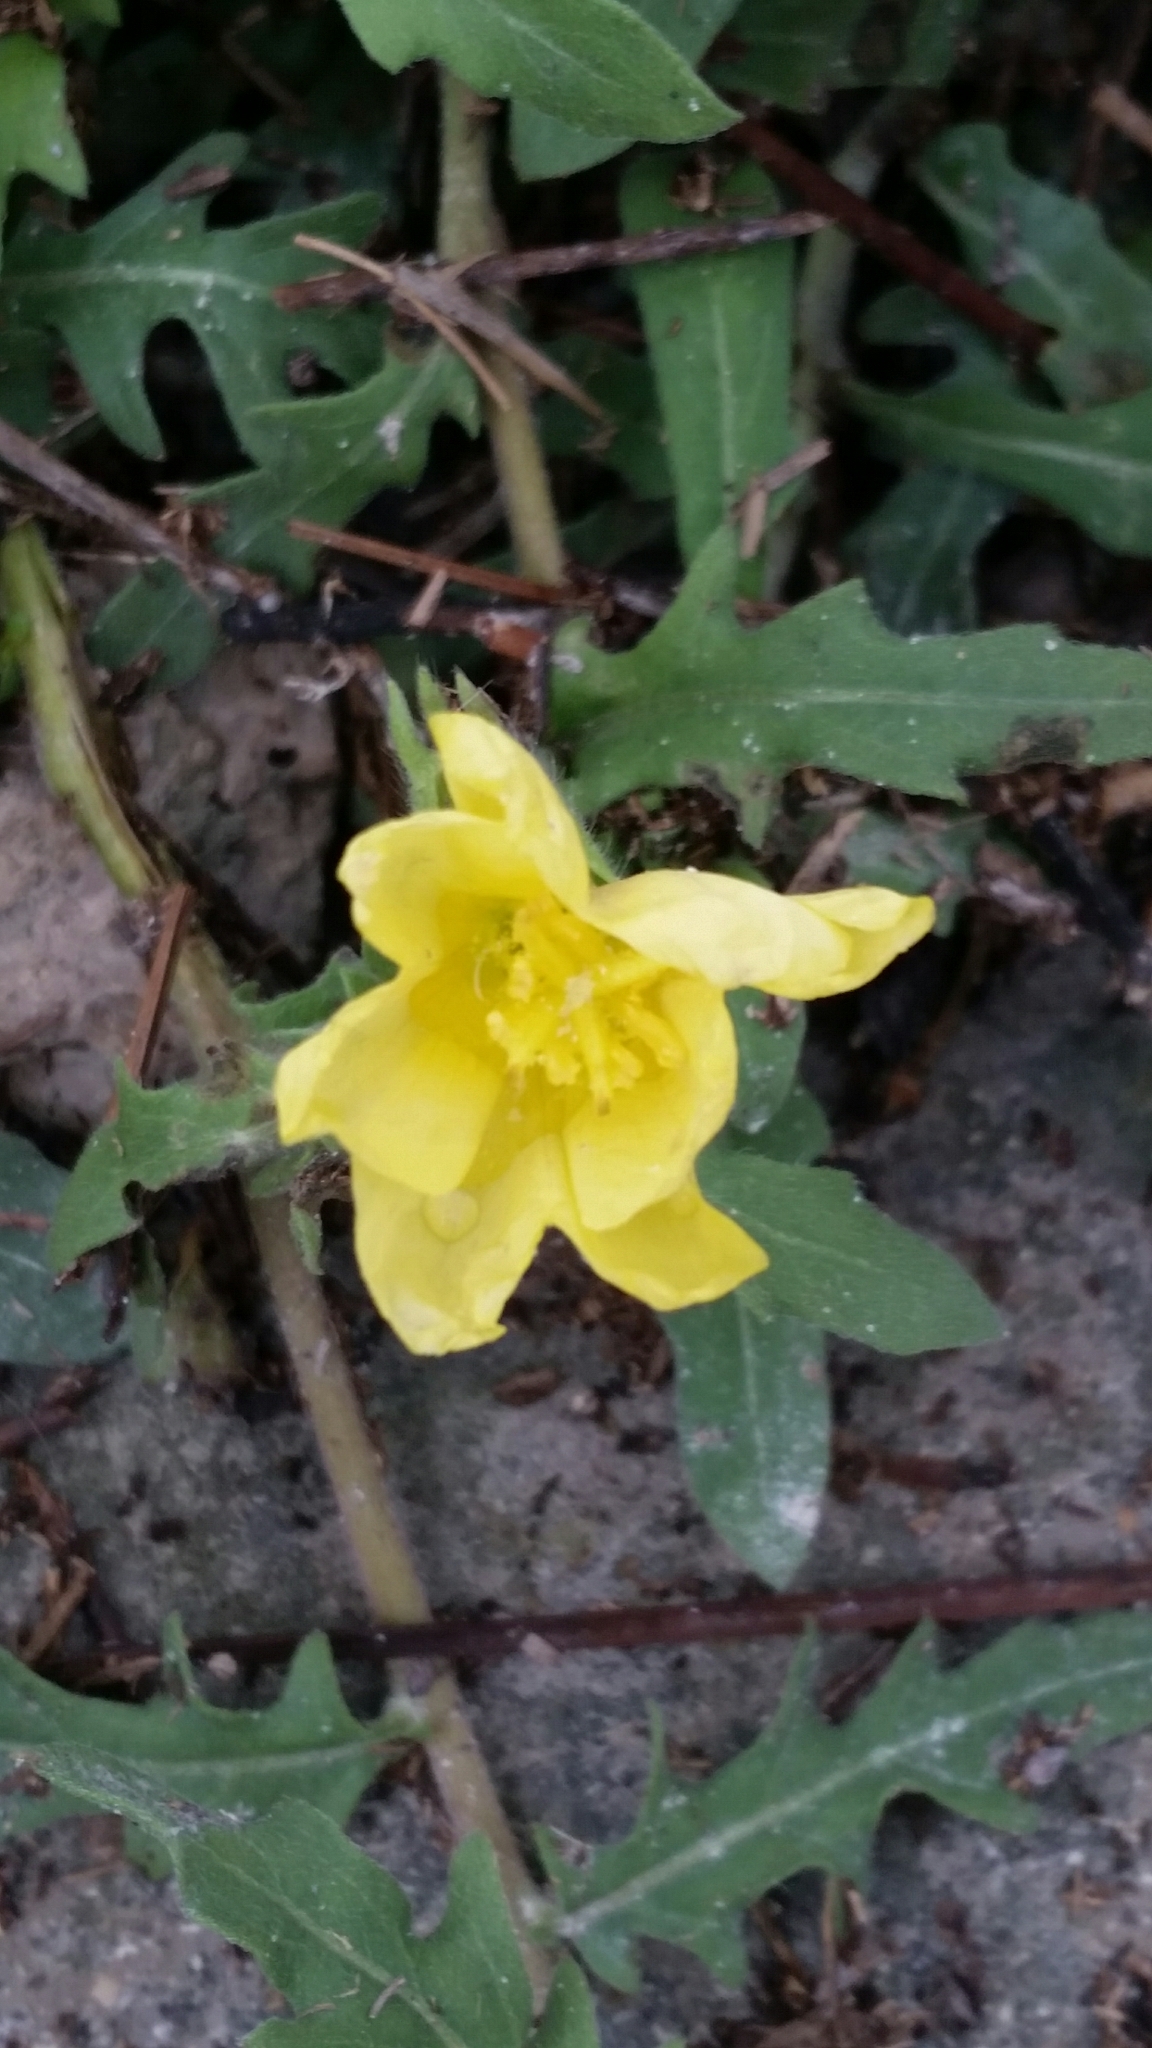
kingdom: Plantae
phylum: Tracheophyta
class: Magnoliopsida
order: Myrtales
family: Onagraceae
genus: Oenothera
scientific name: Oenothera laciniata
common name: Cut-leaved evening-primrose
